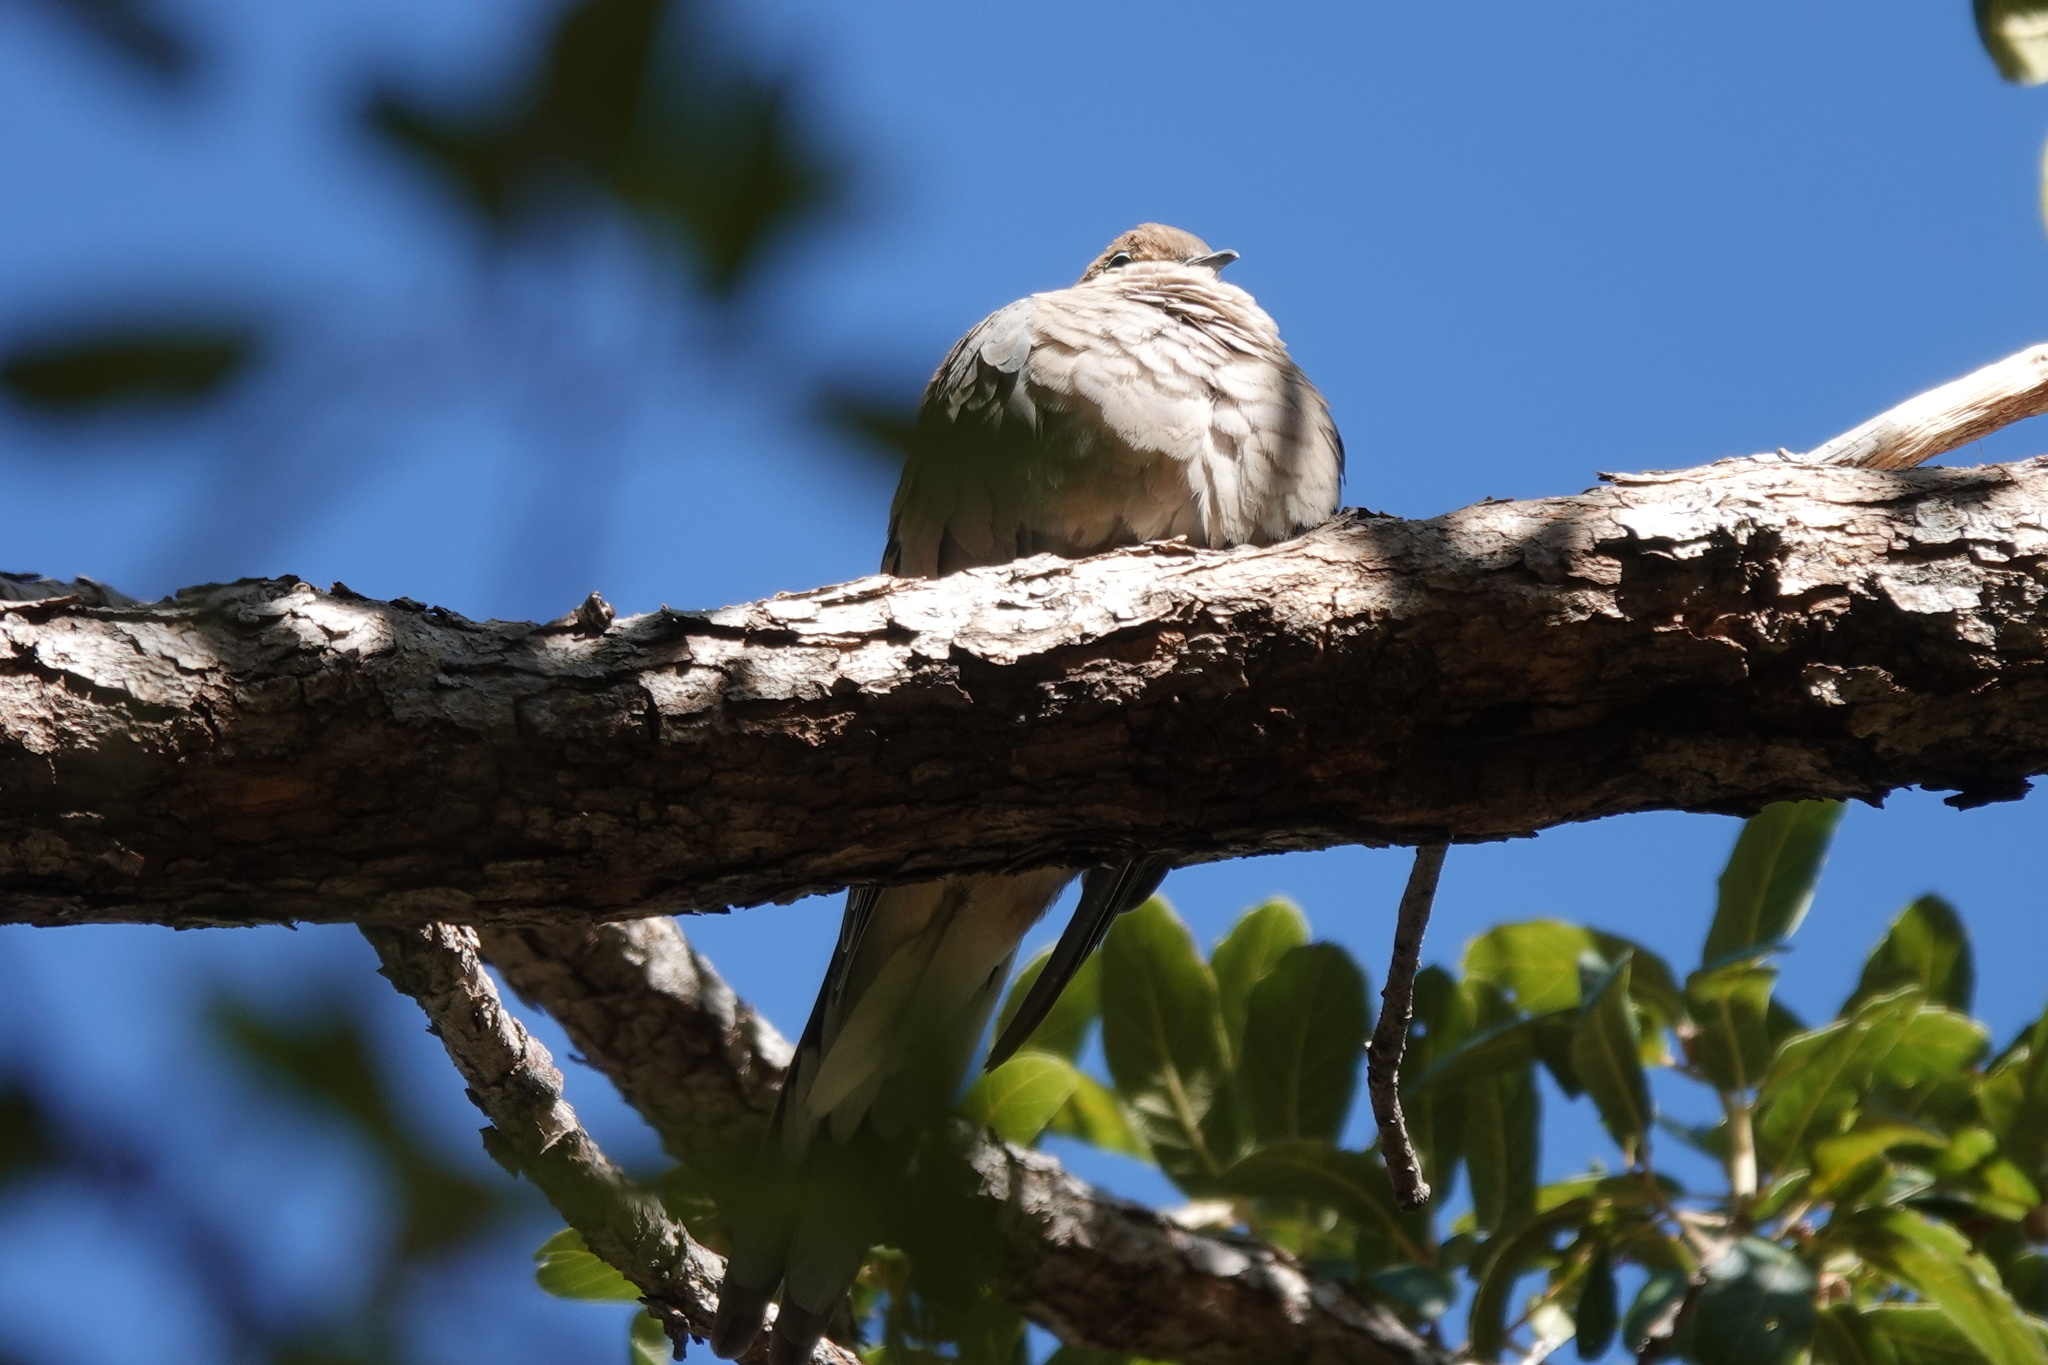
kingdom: Animalia
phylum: Chordata
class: Aves
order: Columbiformes
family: Columbidae
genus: Zenaida
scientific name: Zenaida macroura
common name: Mourning dove
